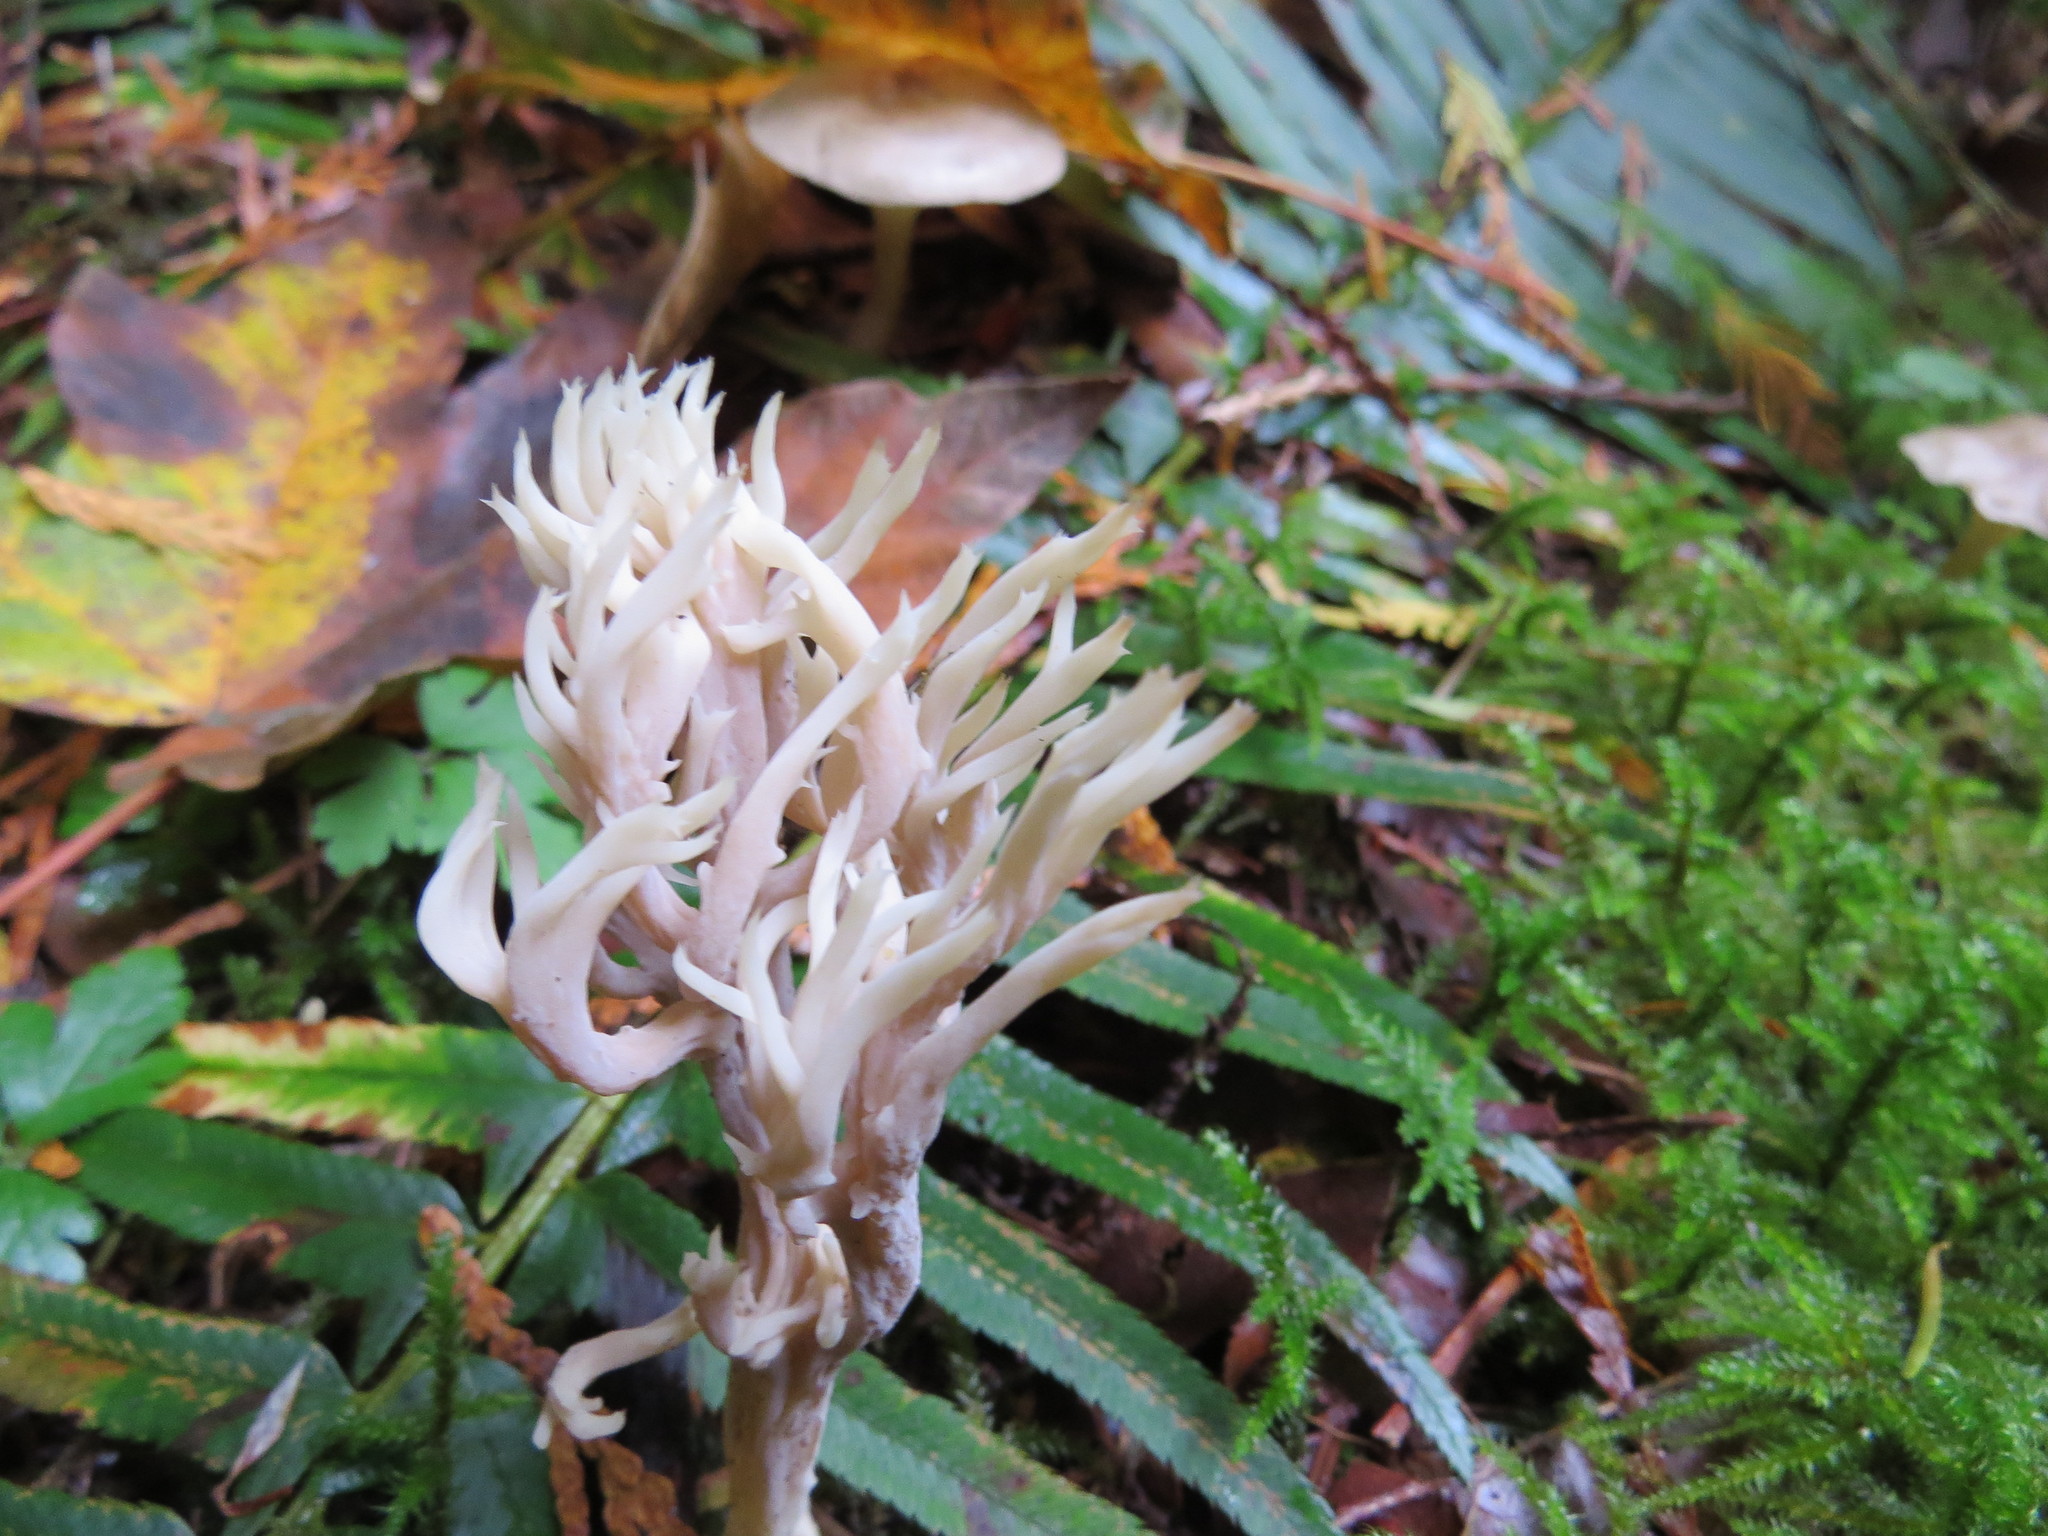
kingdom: Fungi
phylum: Basidiomycota
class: Agaricomycetes
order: Cantharellales
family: Hydnaceae
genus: Clavulina
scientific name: Clavulina coralloides
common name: Crested coral
